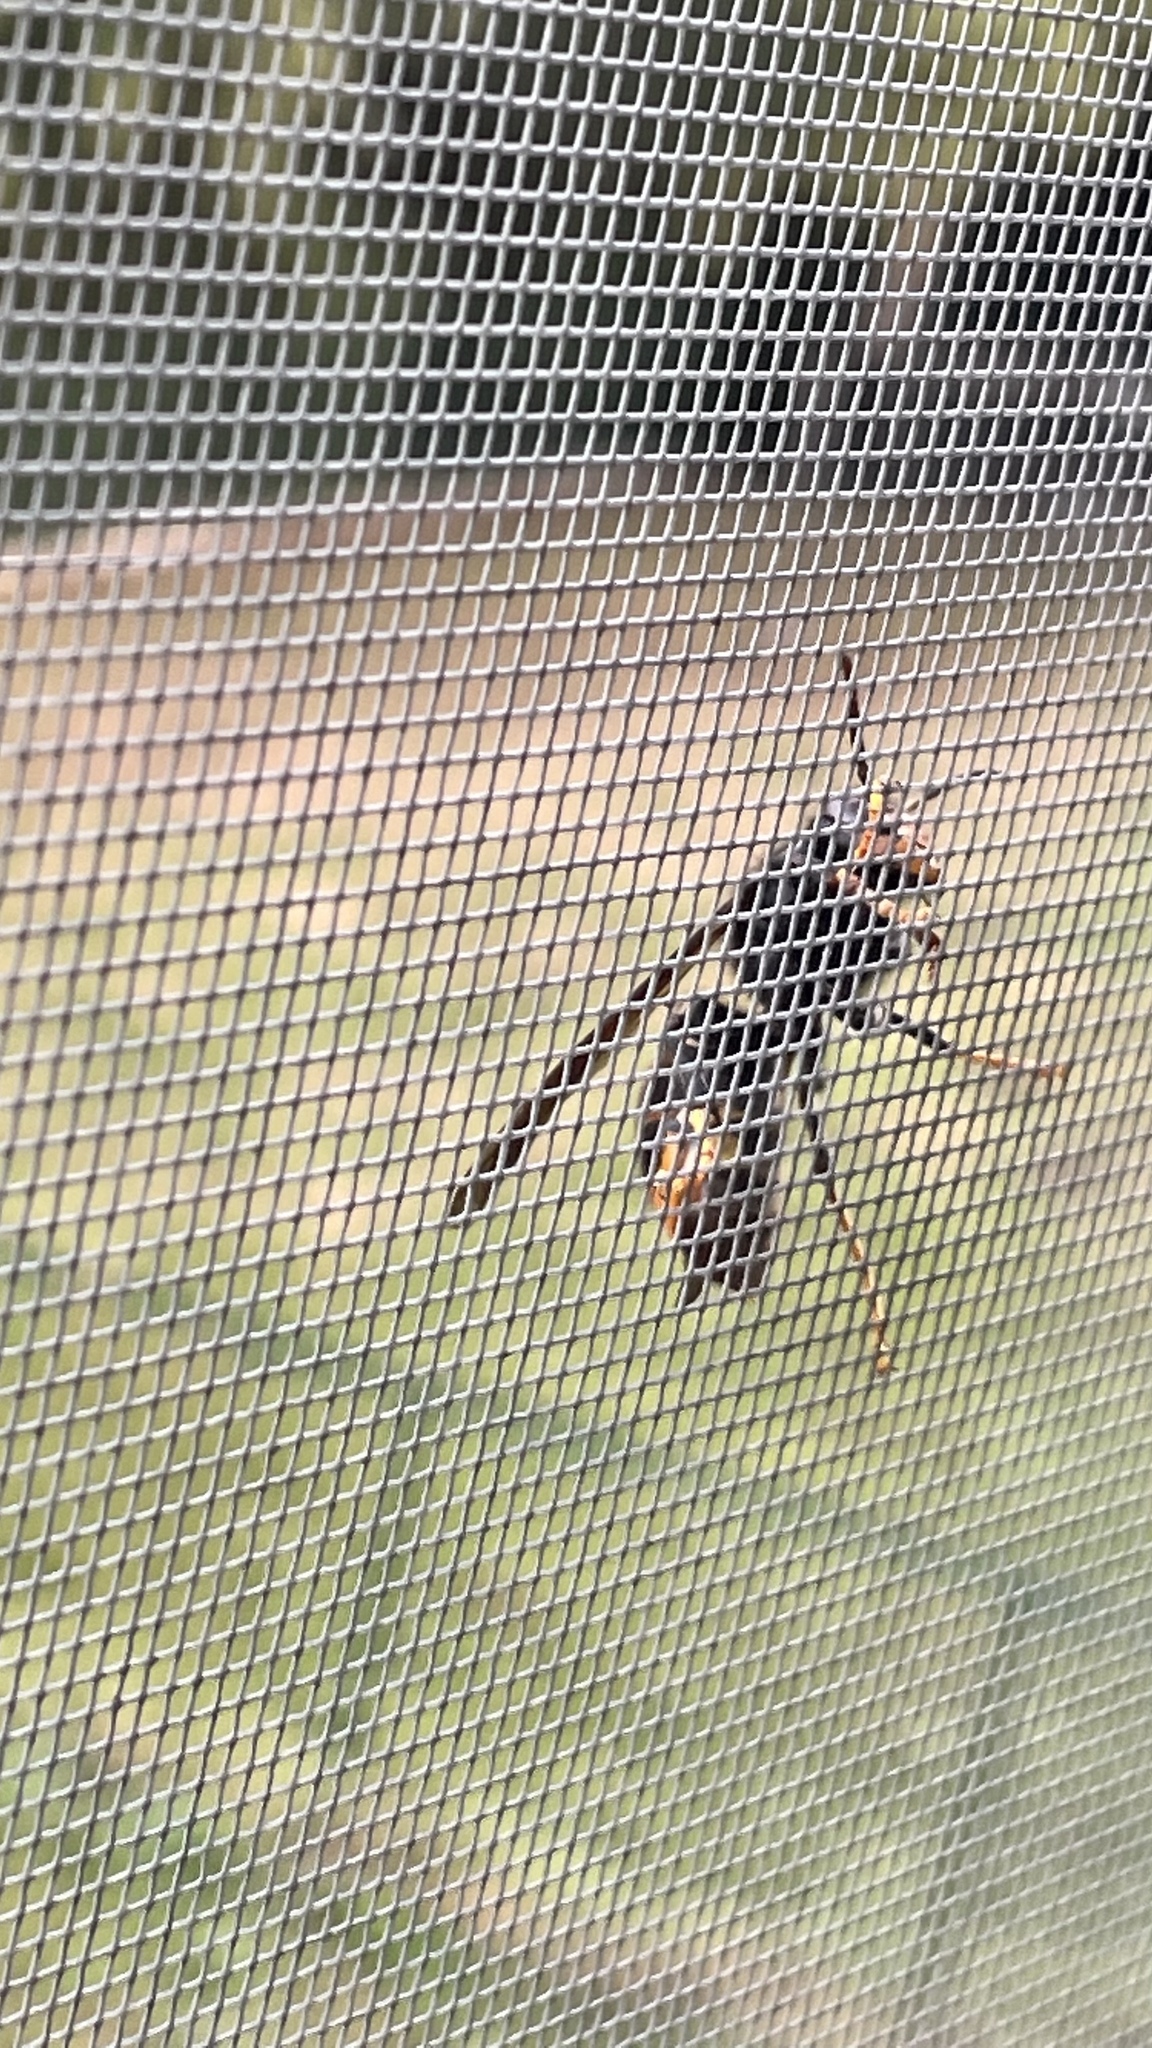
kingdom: Animalia
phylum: Arthropoda
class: Insecta
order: Hymenoptera
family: Vespidae
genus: Vespa
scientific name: Vespa velutina
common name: Asian hornet
